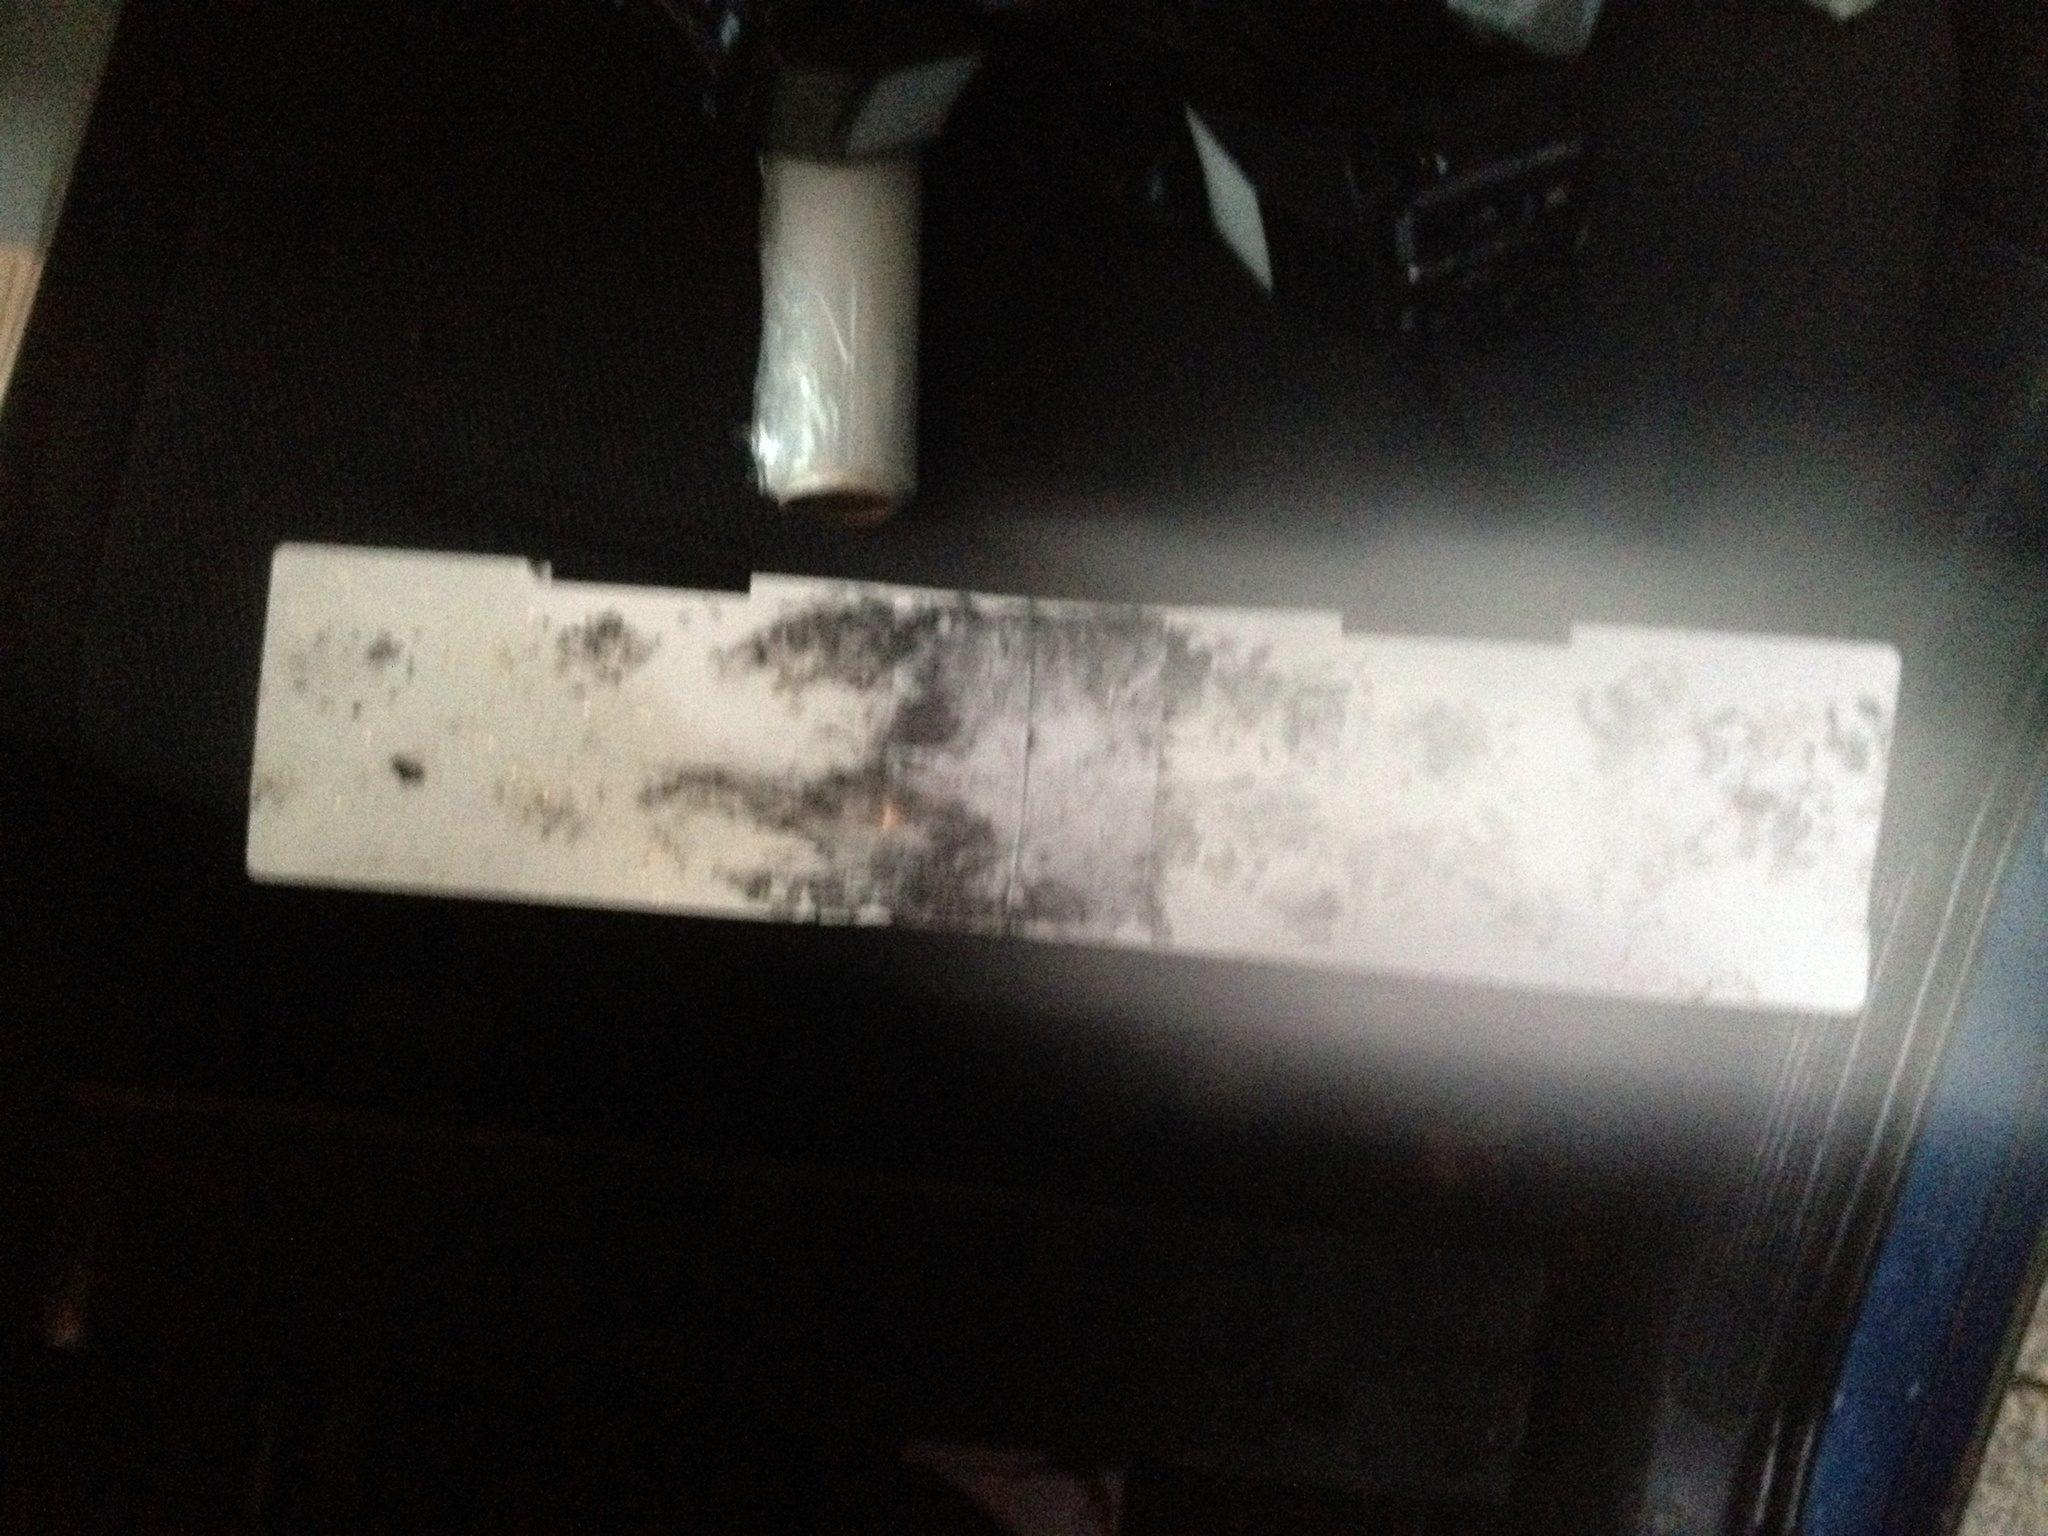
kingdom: Animalia
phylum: Chordata
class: Mammalia
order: Erinaceomorpha
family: Erinaceidae
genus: Erinaceus
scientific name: Erinaceus europaeus
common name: West european hedgehog
